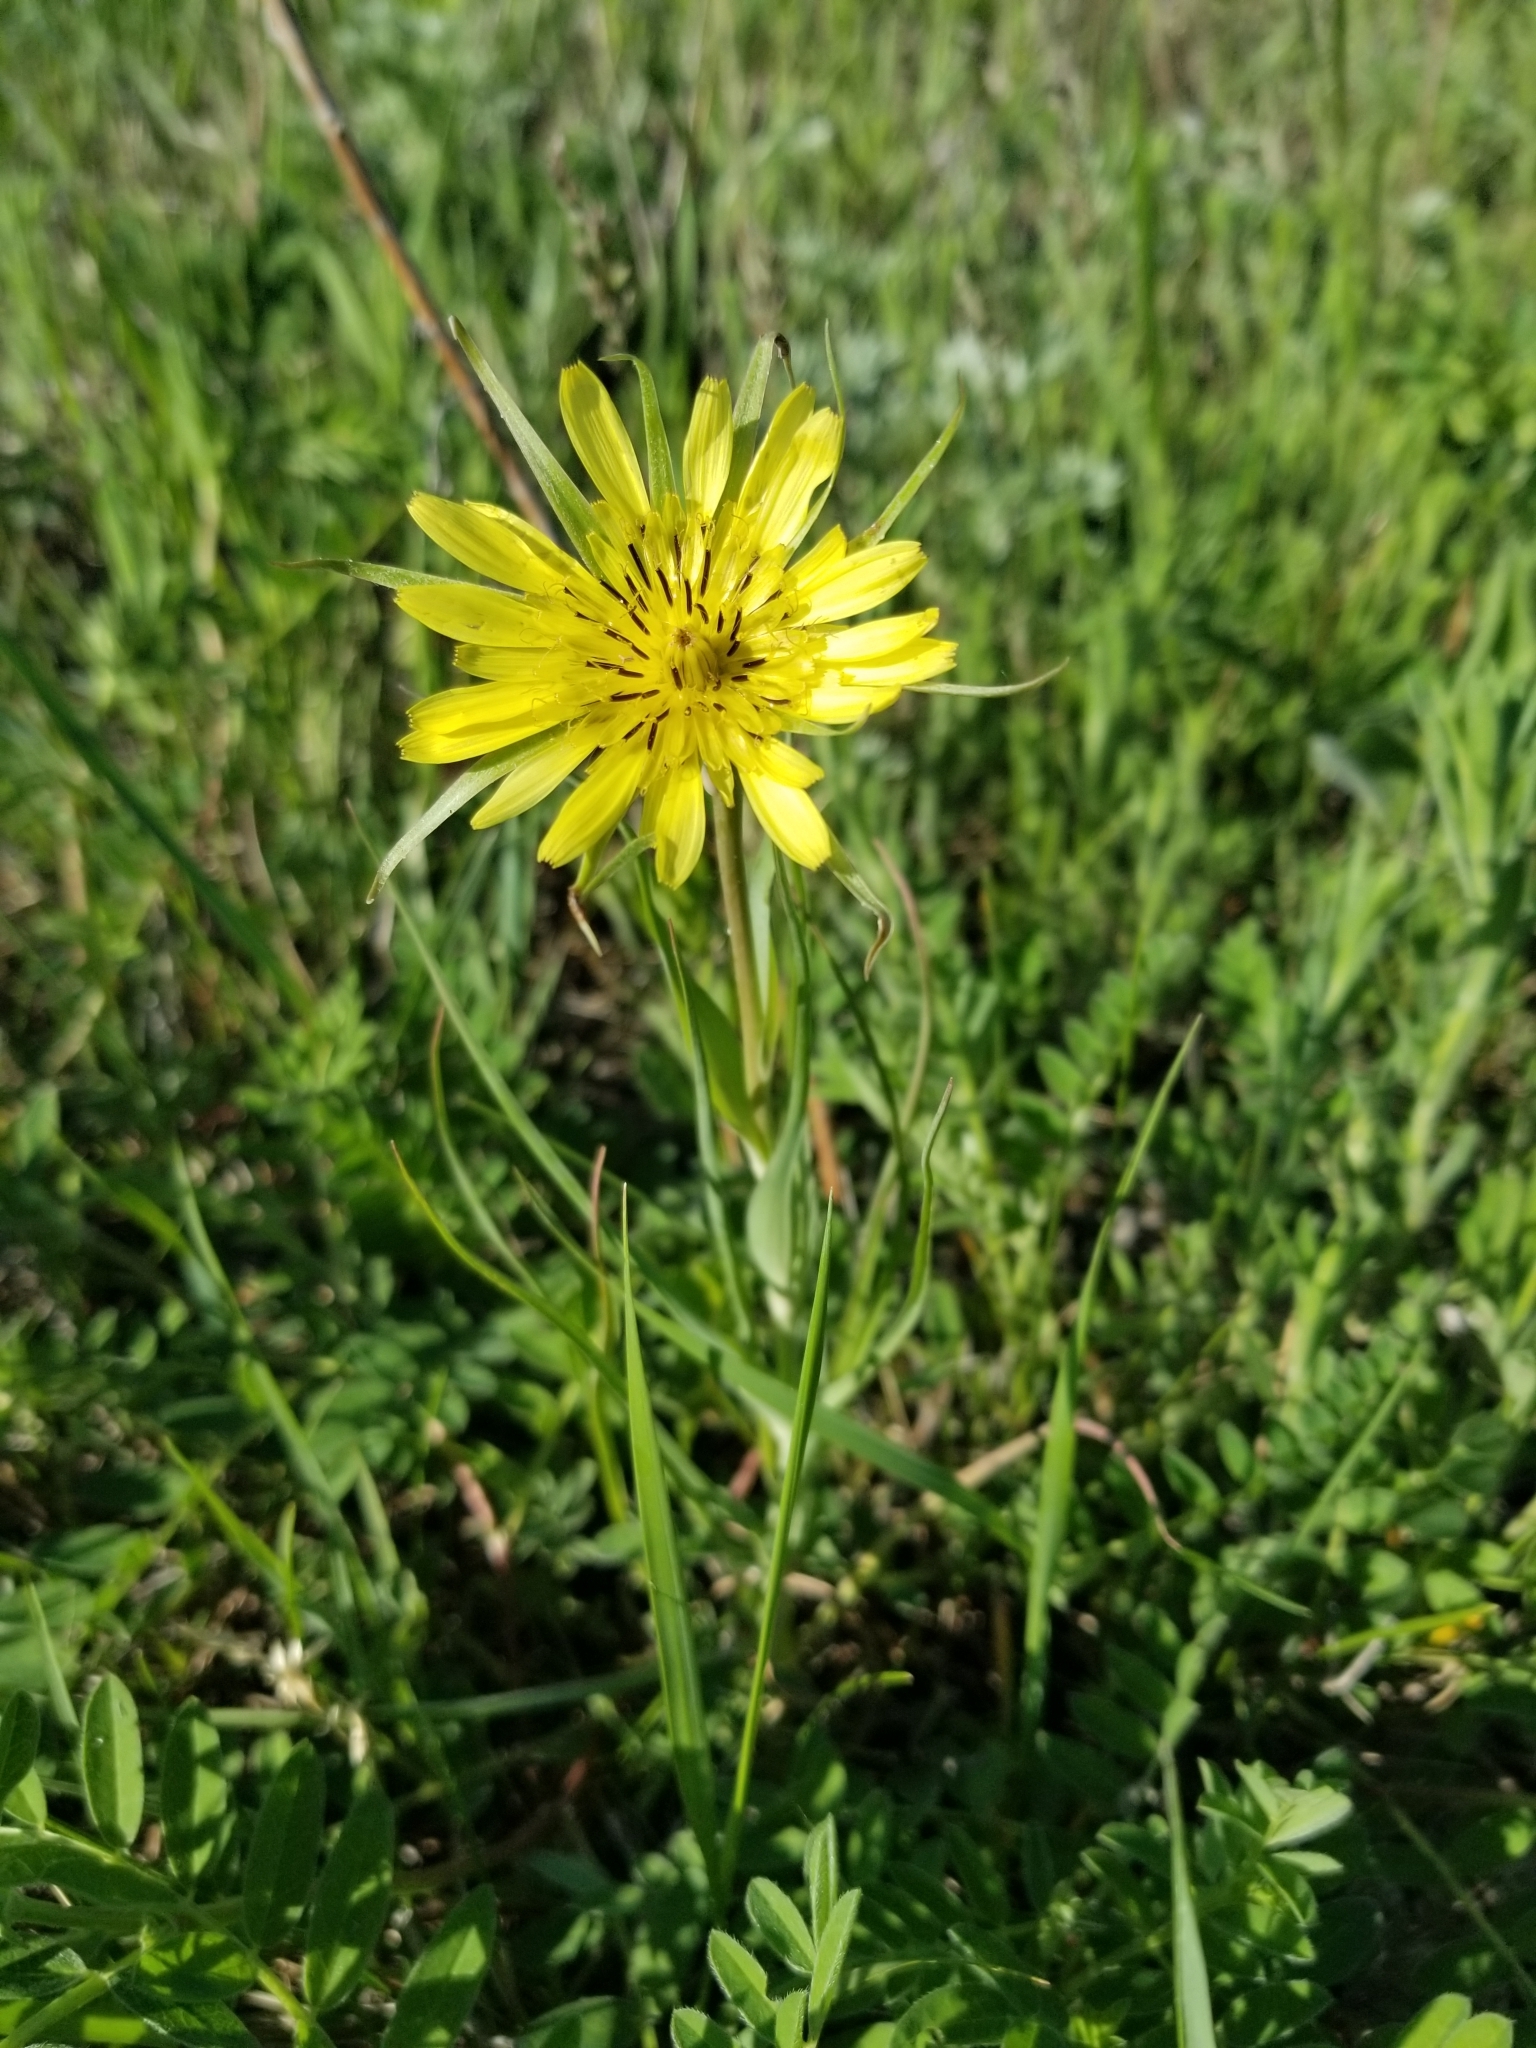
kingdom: Plantae
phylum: Tracheophyta
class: Magnoliopsida
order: Asterales
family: Asteraceae
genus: Tragopogon
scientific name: Tragopogon dubius
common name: Yellow salsify
